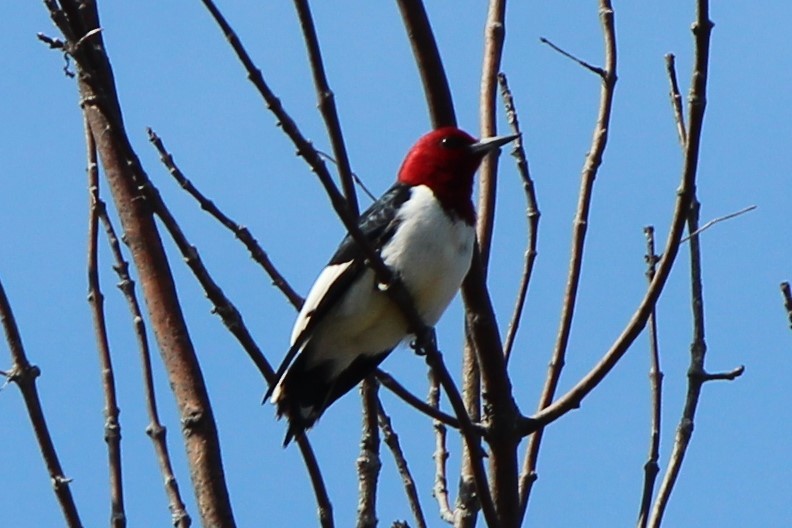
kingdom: Animalia
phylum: Chordata
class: Aves
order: Piciformes
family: Picidae
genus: Melanerpes
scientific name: Melanerpes erythrocephalus
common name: Red-headed woodpecker
